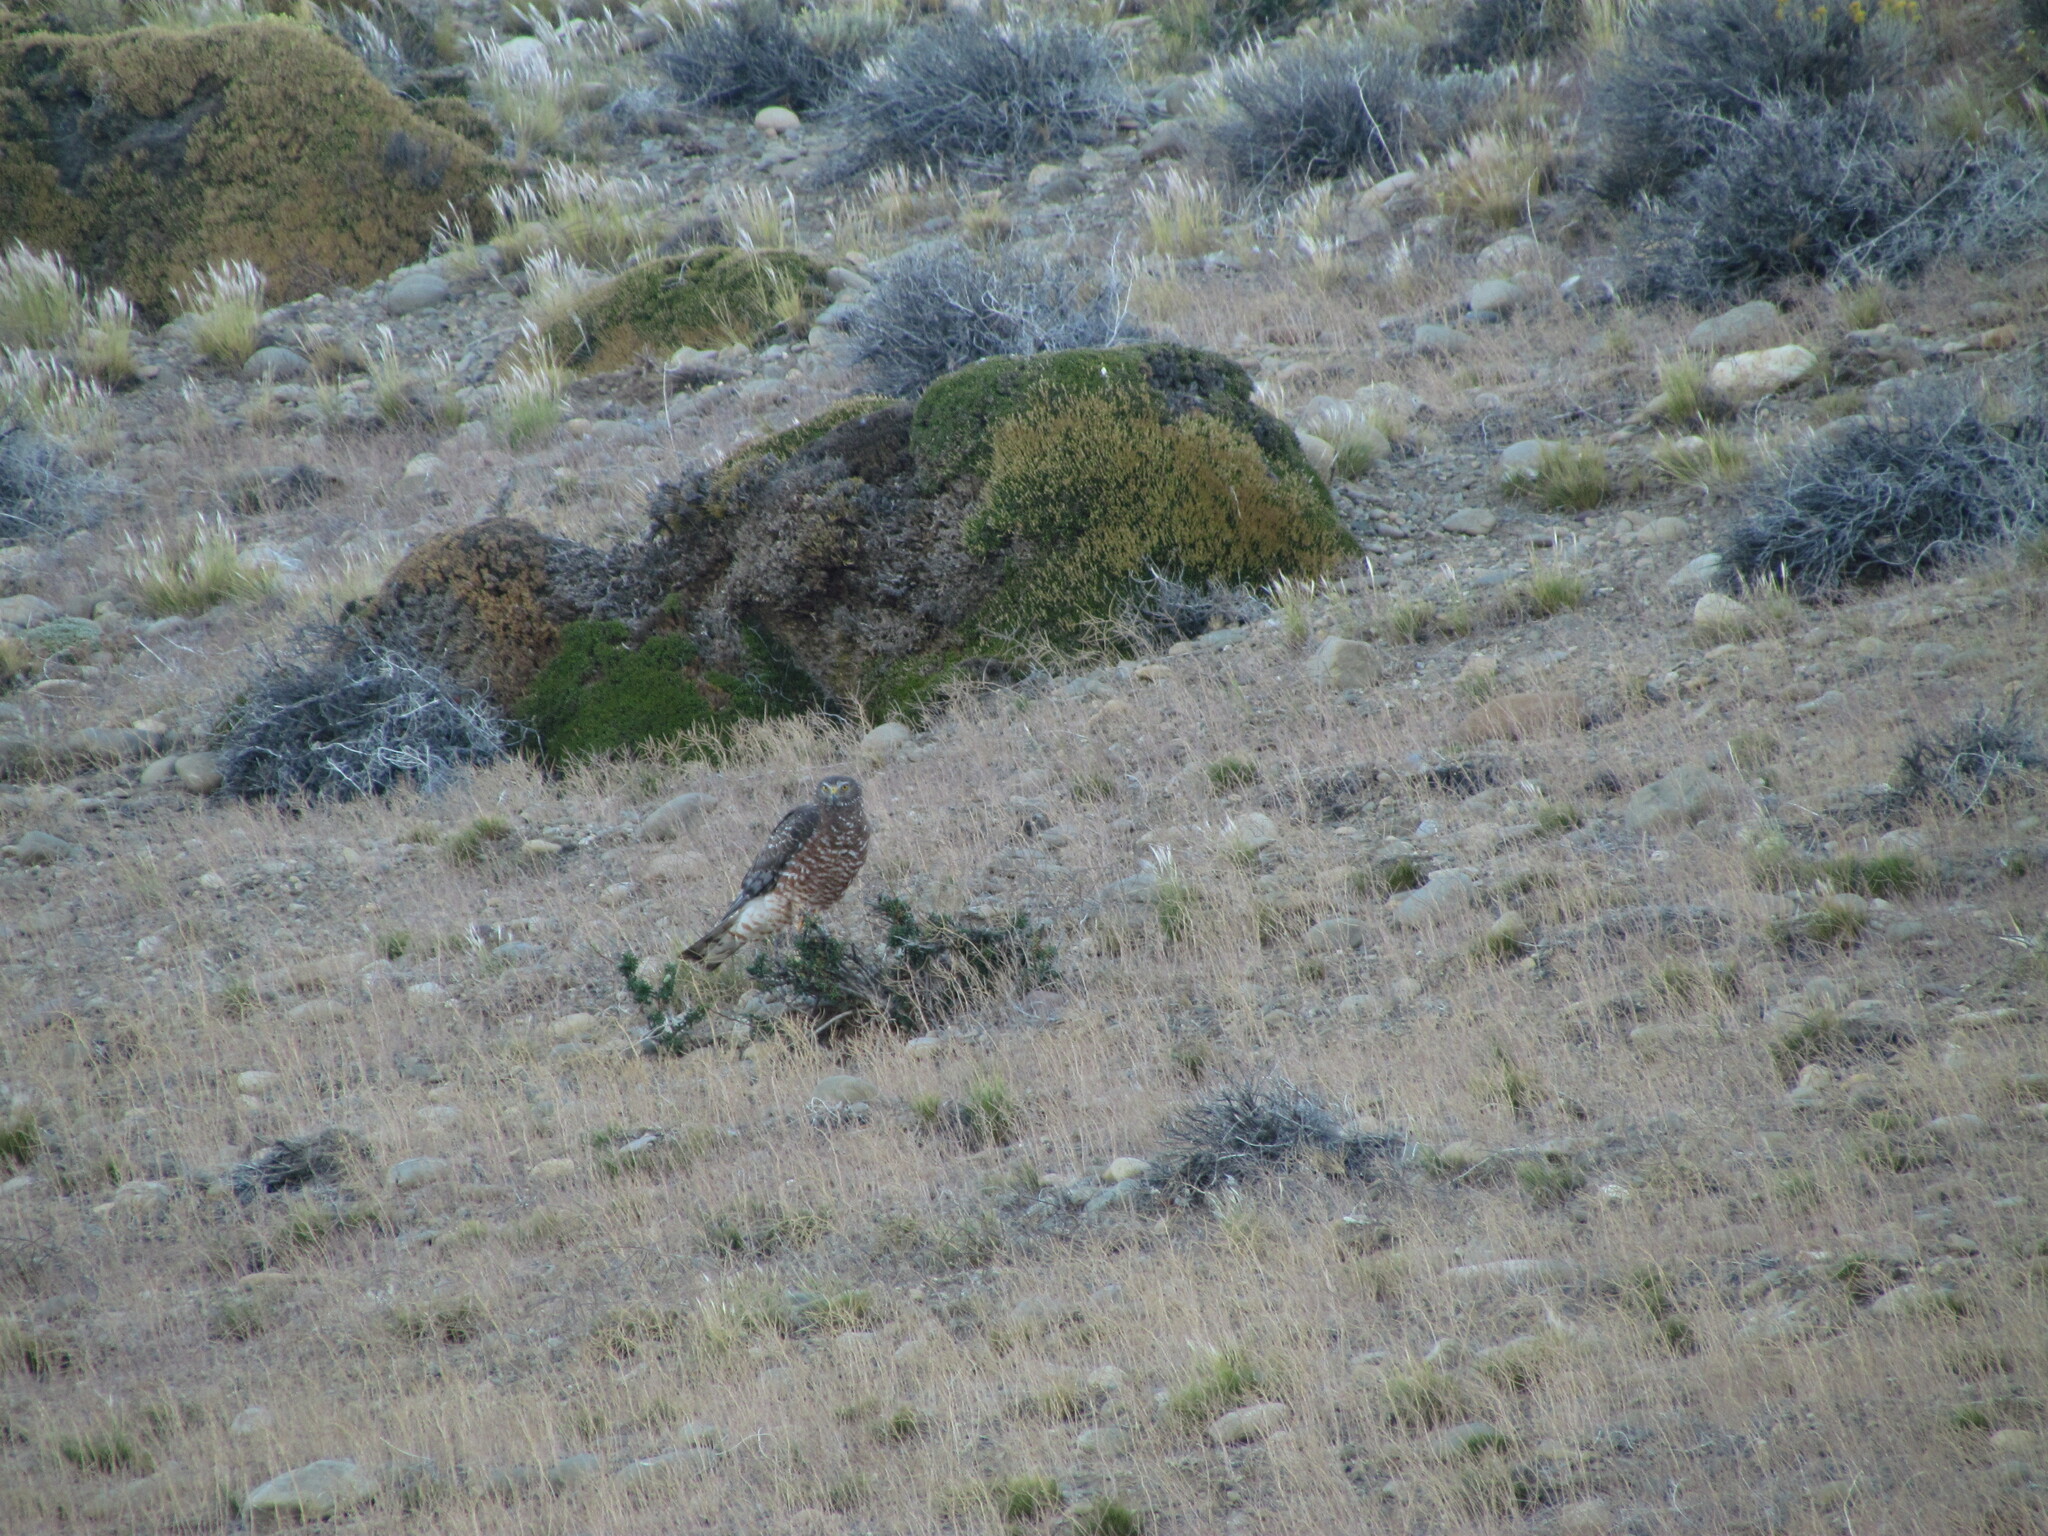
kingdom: Animalia
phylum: Chordata
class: Aves
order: Accipitriformes
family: Accipitridae
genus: Circus
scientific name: Circus cinereus
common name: Cinereous harrier
